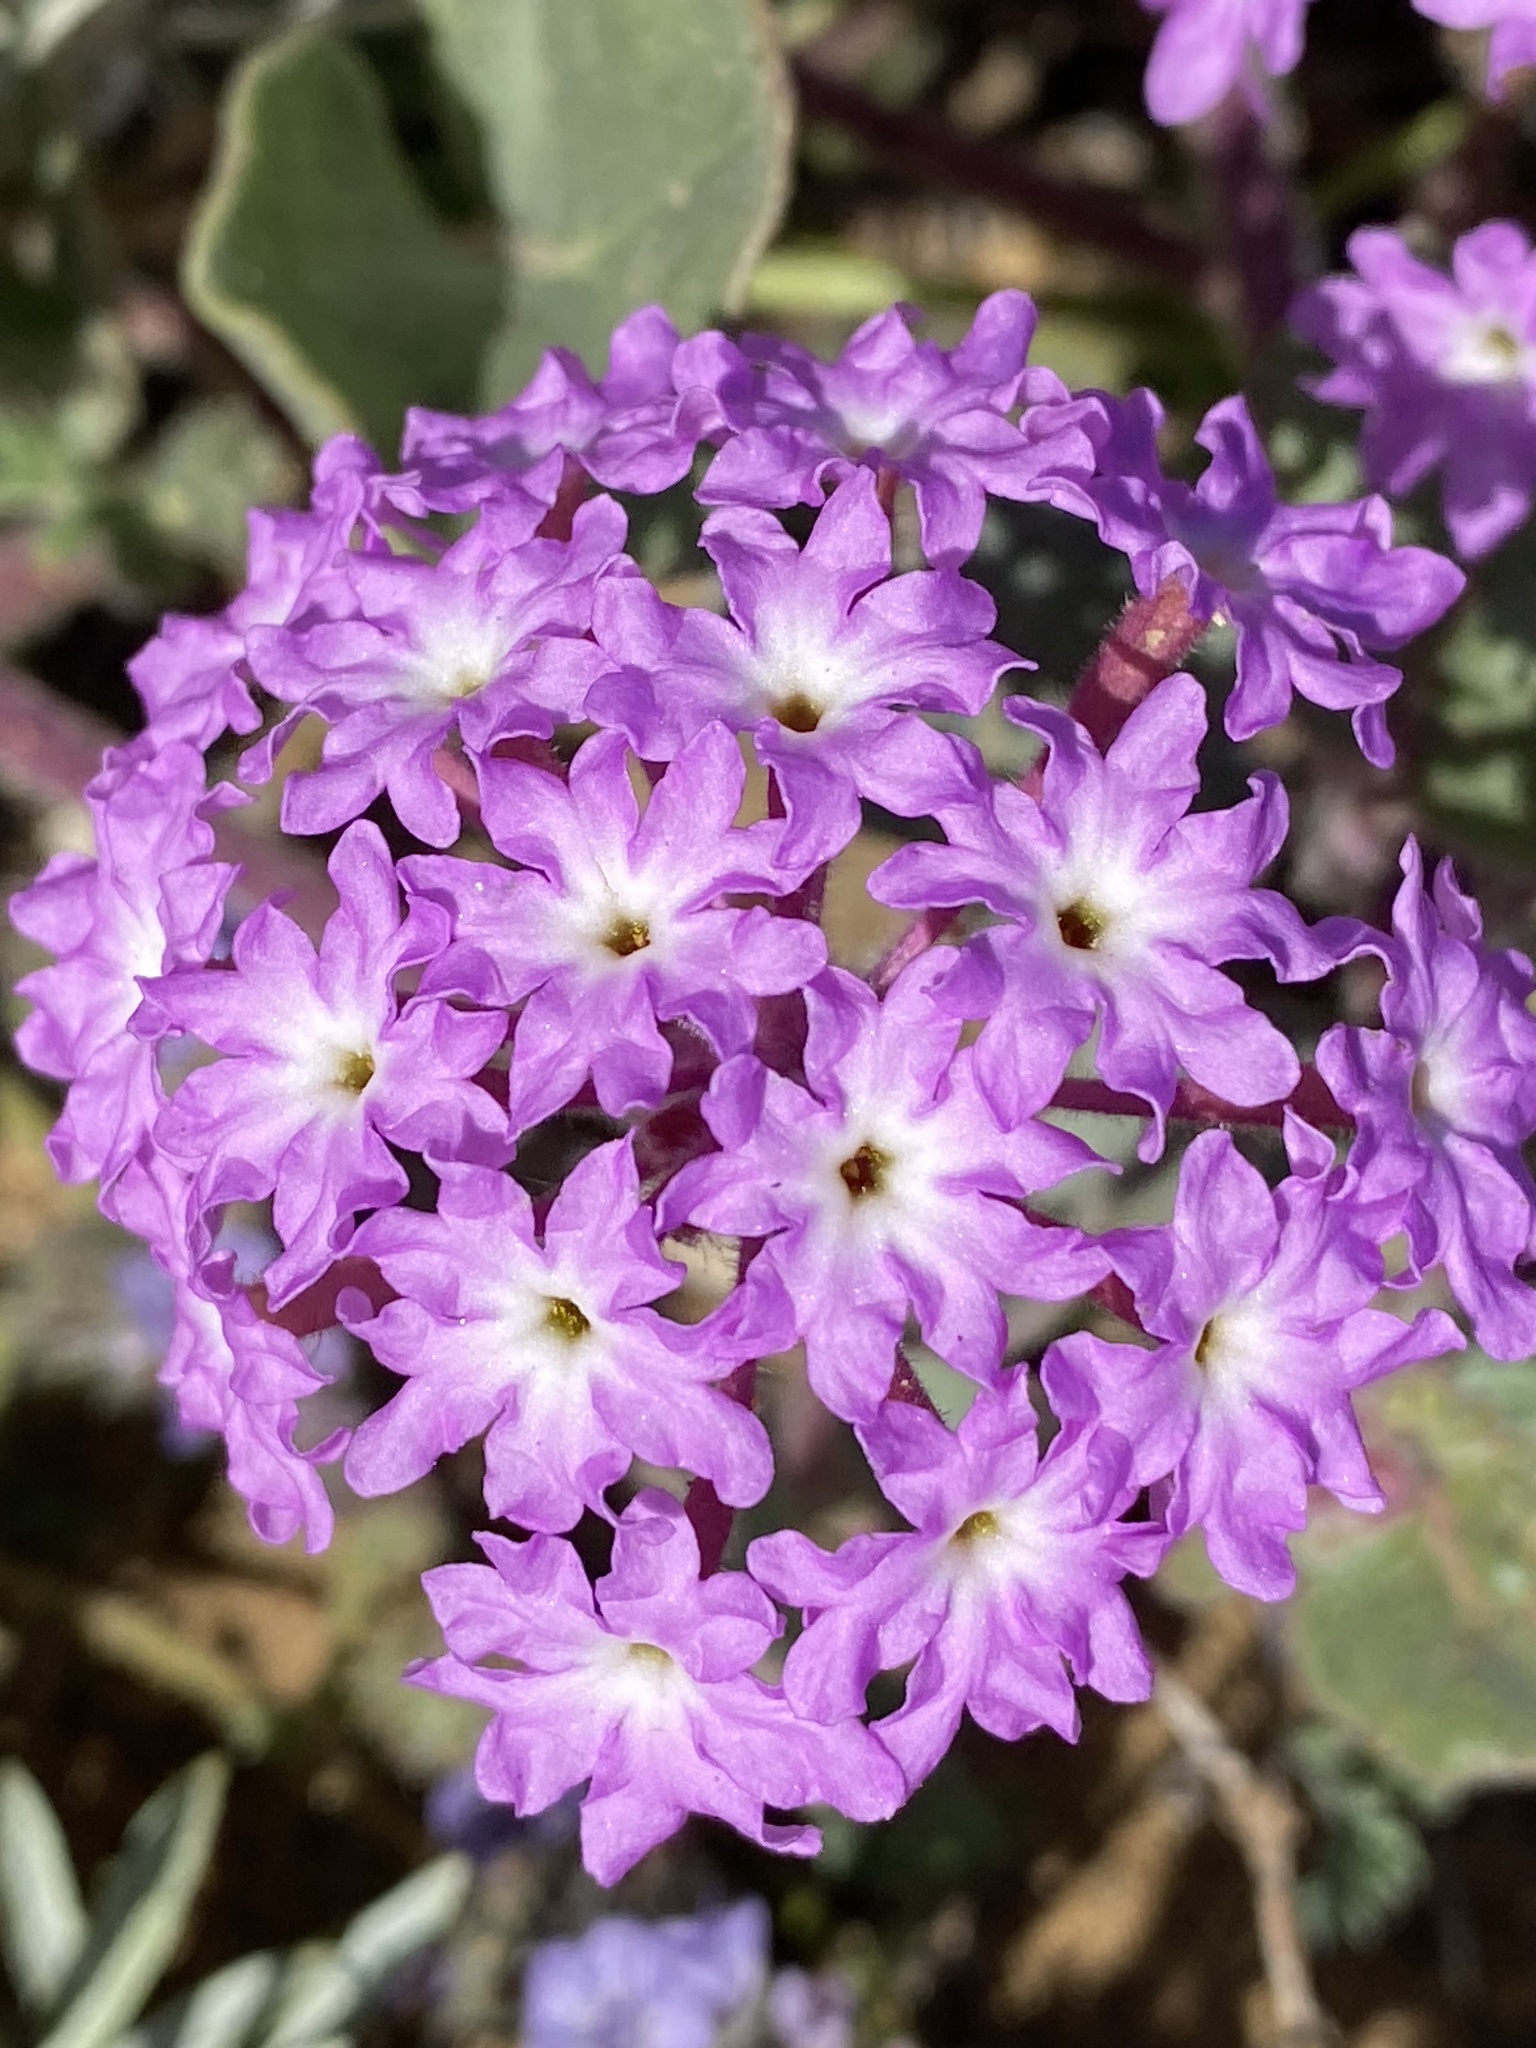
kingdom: Plantae
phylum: Tracheophyta
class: Magnoliopsida
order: Caryophyllales
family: Nyctaginaceae
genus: Abronia
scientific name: Abronia umbellata
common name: Sand-verbena
